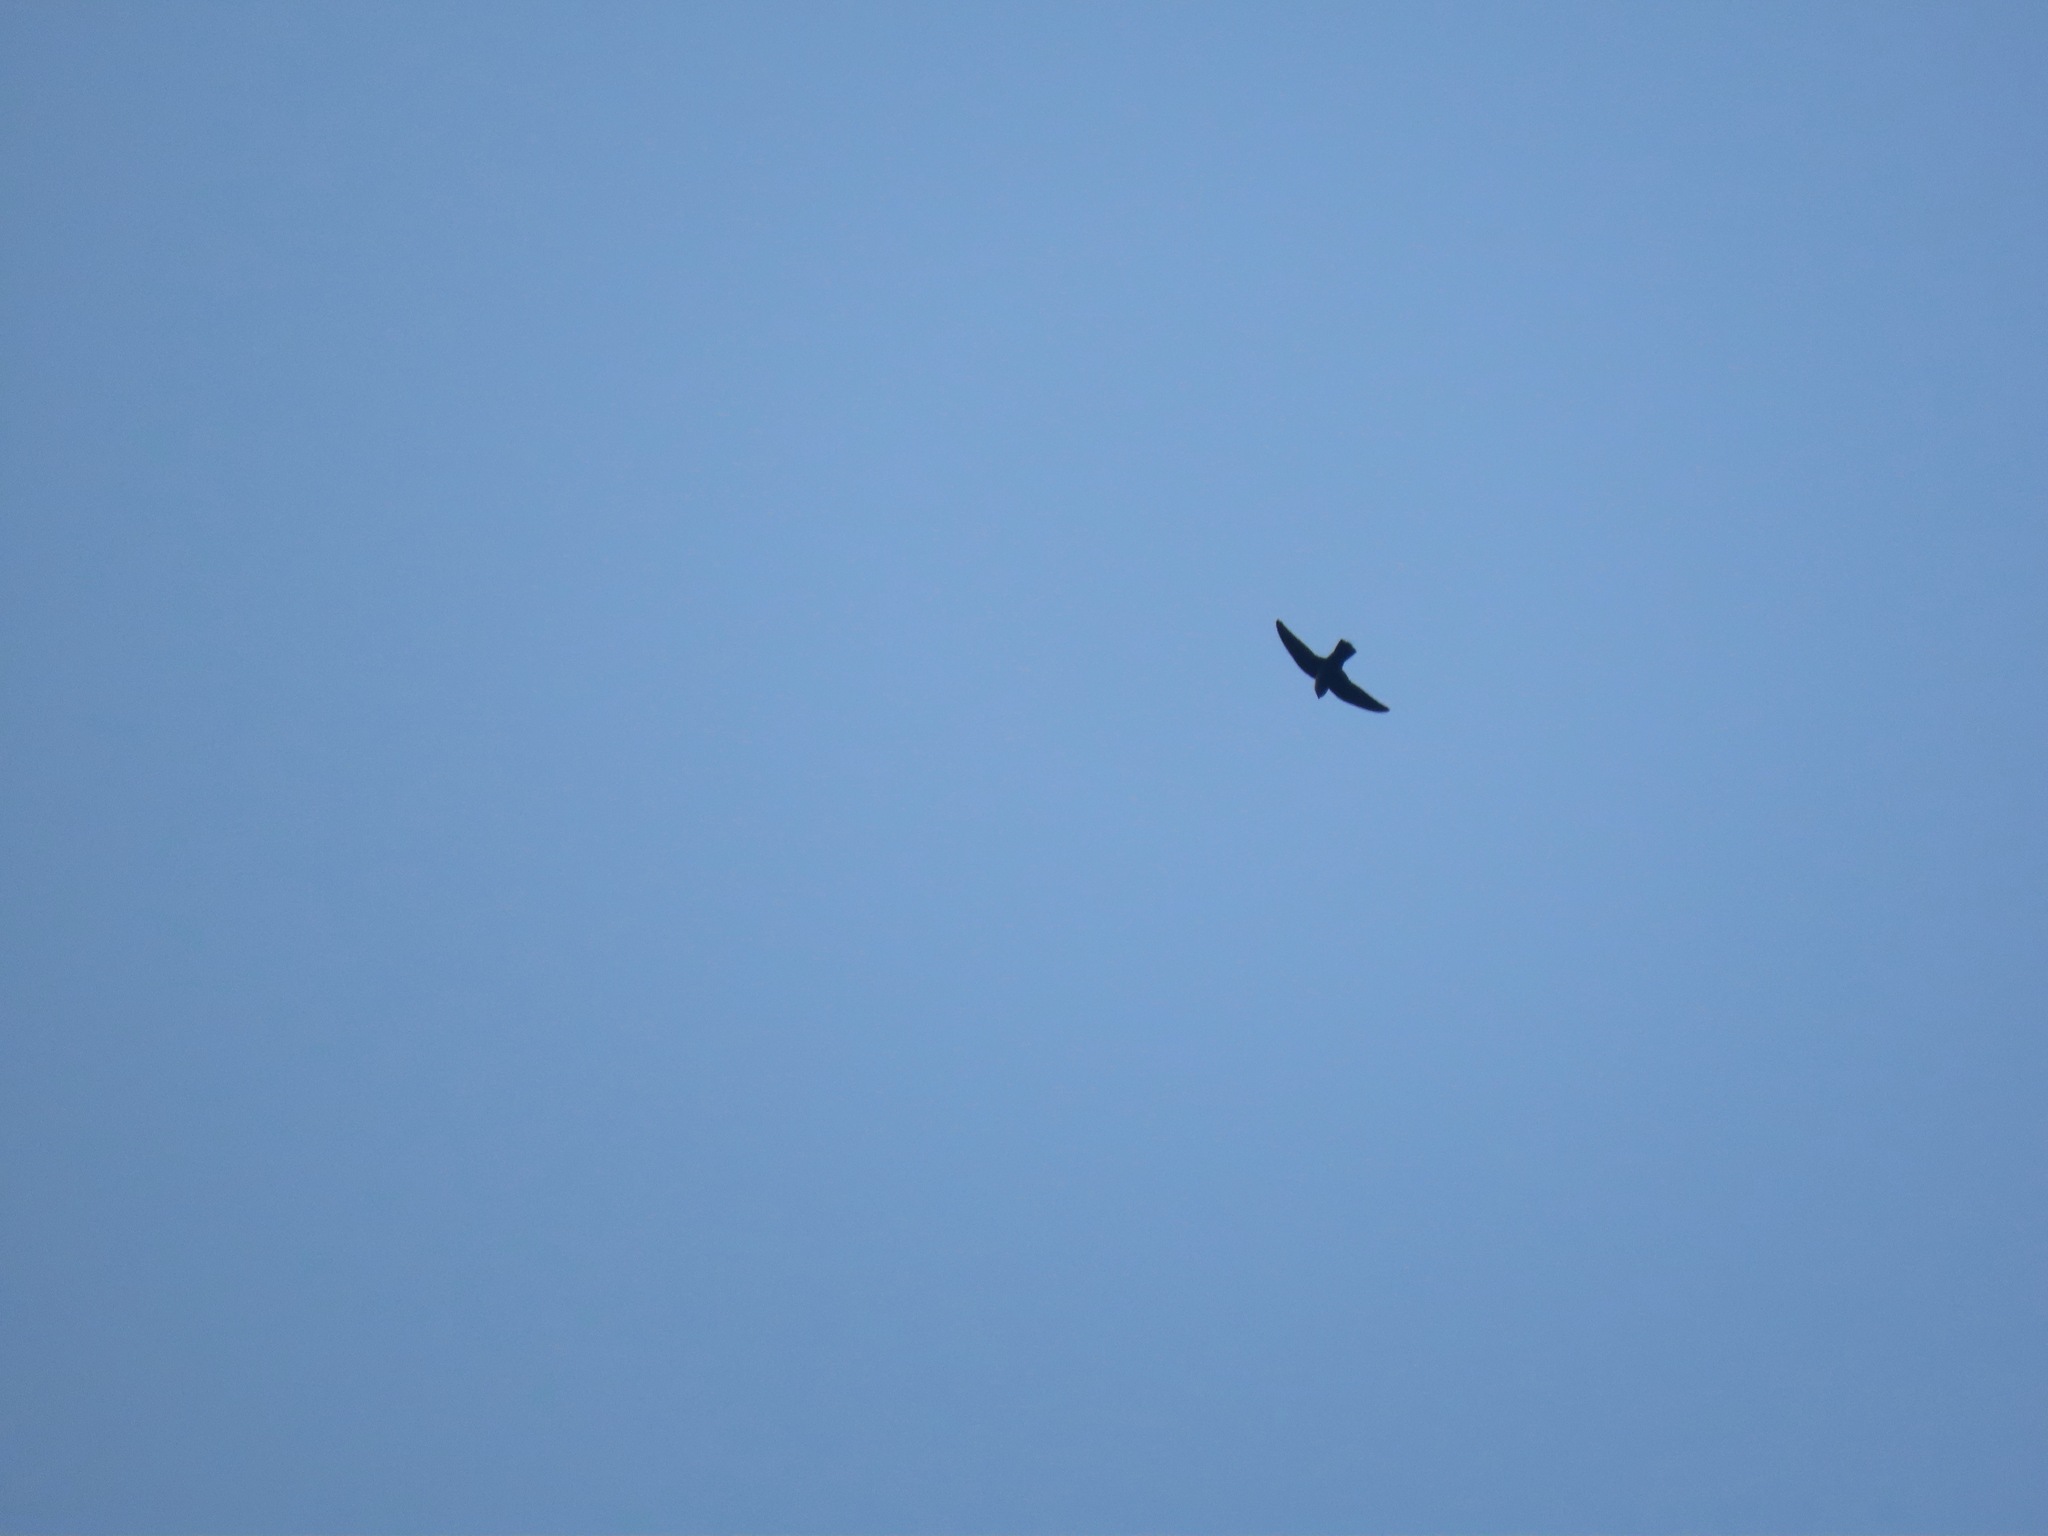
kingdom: Animalia
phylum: Chordata
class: Aves
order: Apodiformes
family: Apodidae
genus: Chaetura
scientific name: Chaetura vauxi
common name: Vaux's swift
